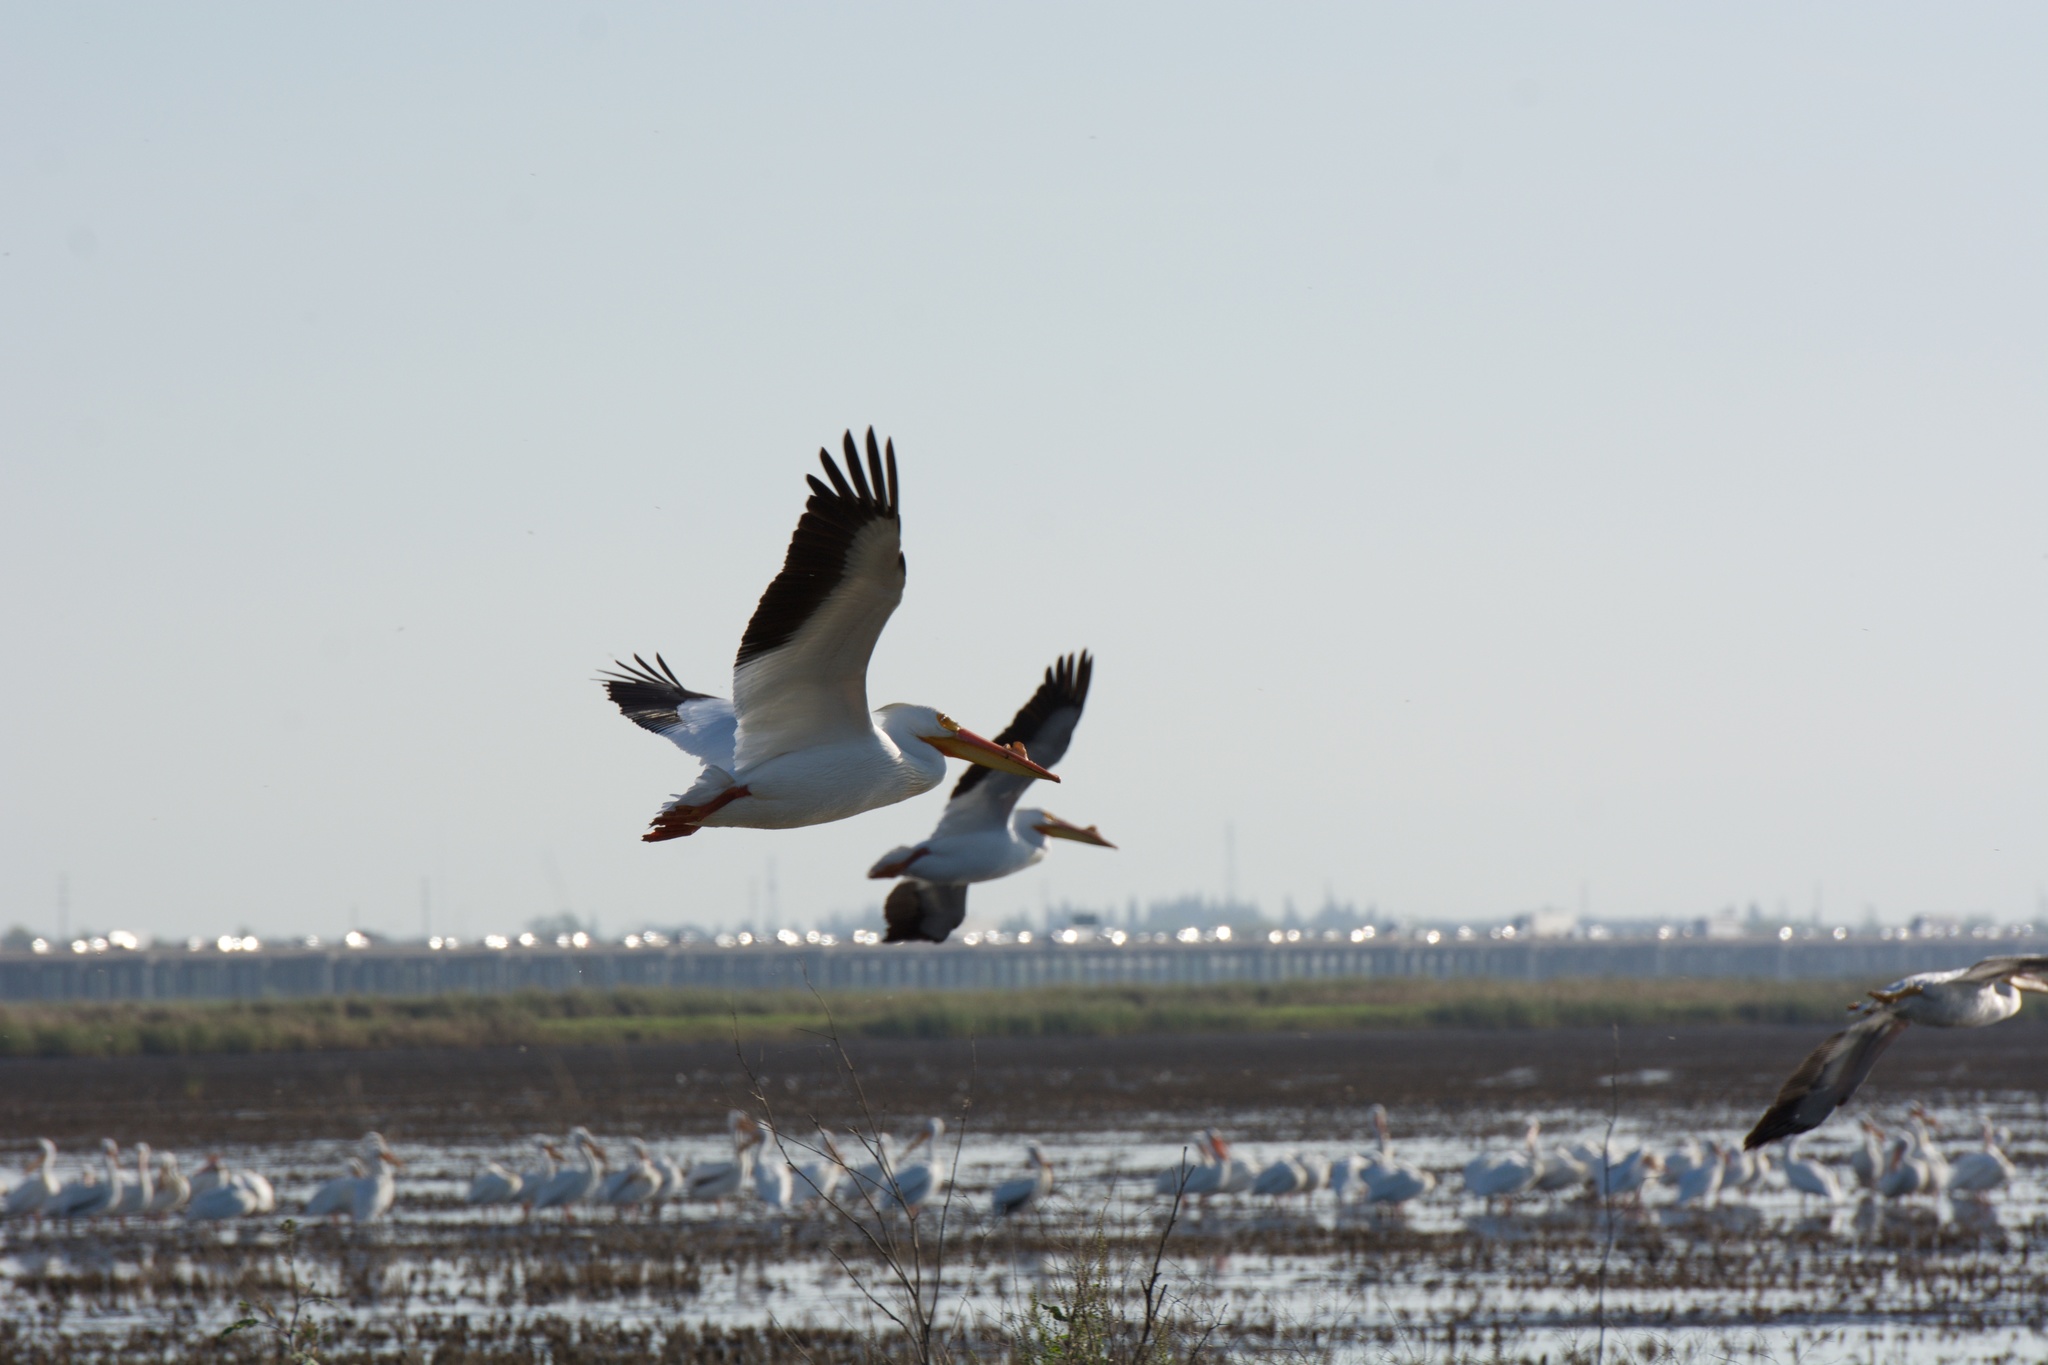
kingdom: Animalia
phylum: Chordata
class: Aves
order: Pelecaniformes
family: Pelecanidae
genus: Pelecanus
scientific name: Pelecanus erythrorhynchos
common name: American white pelican
